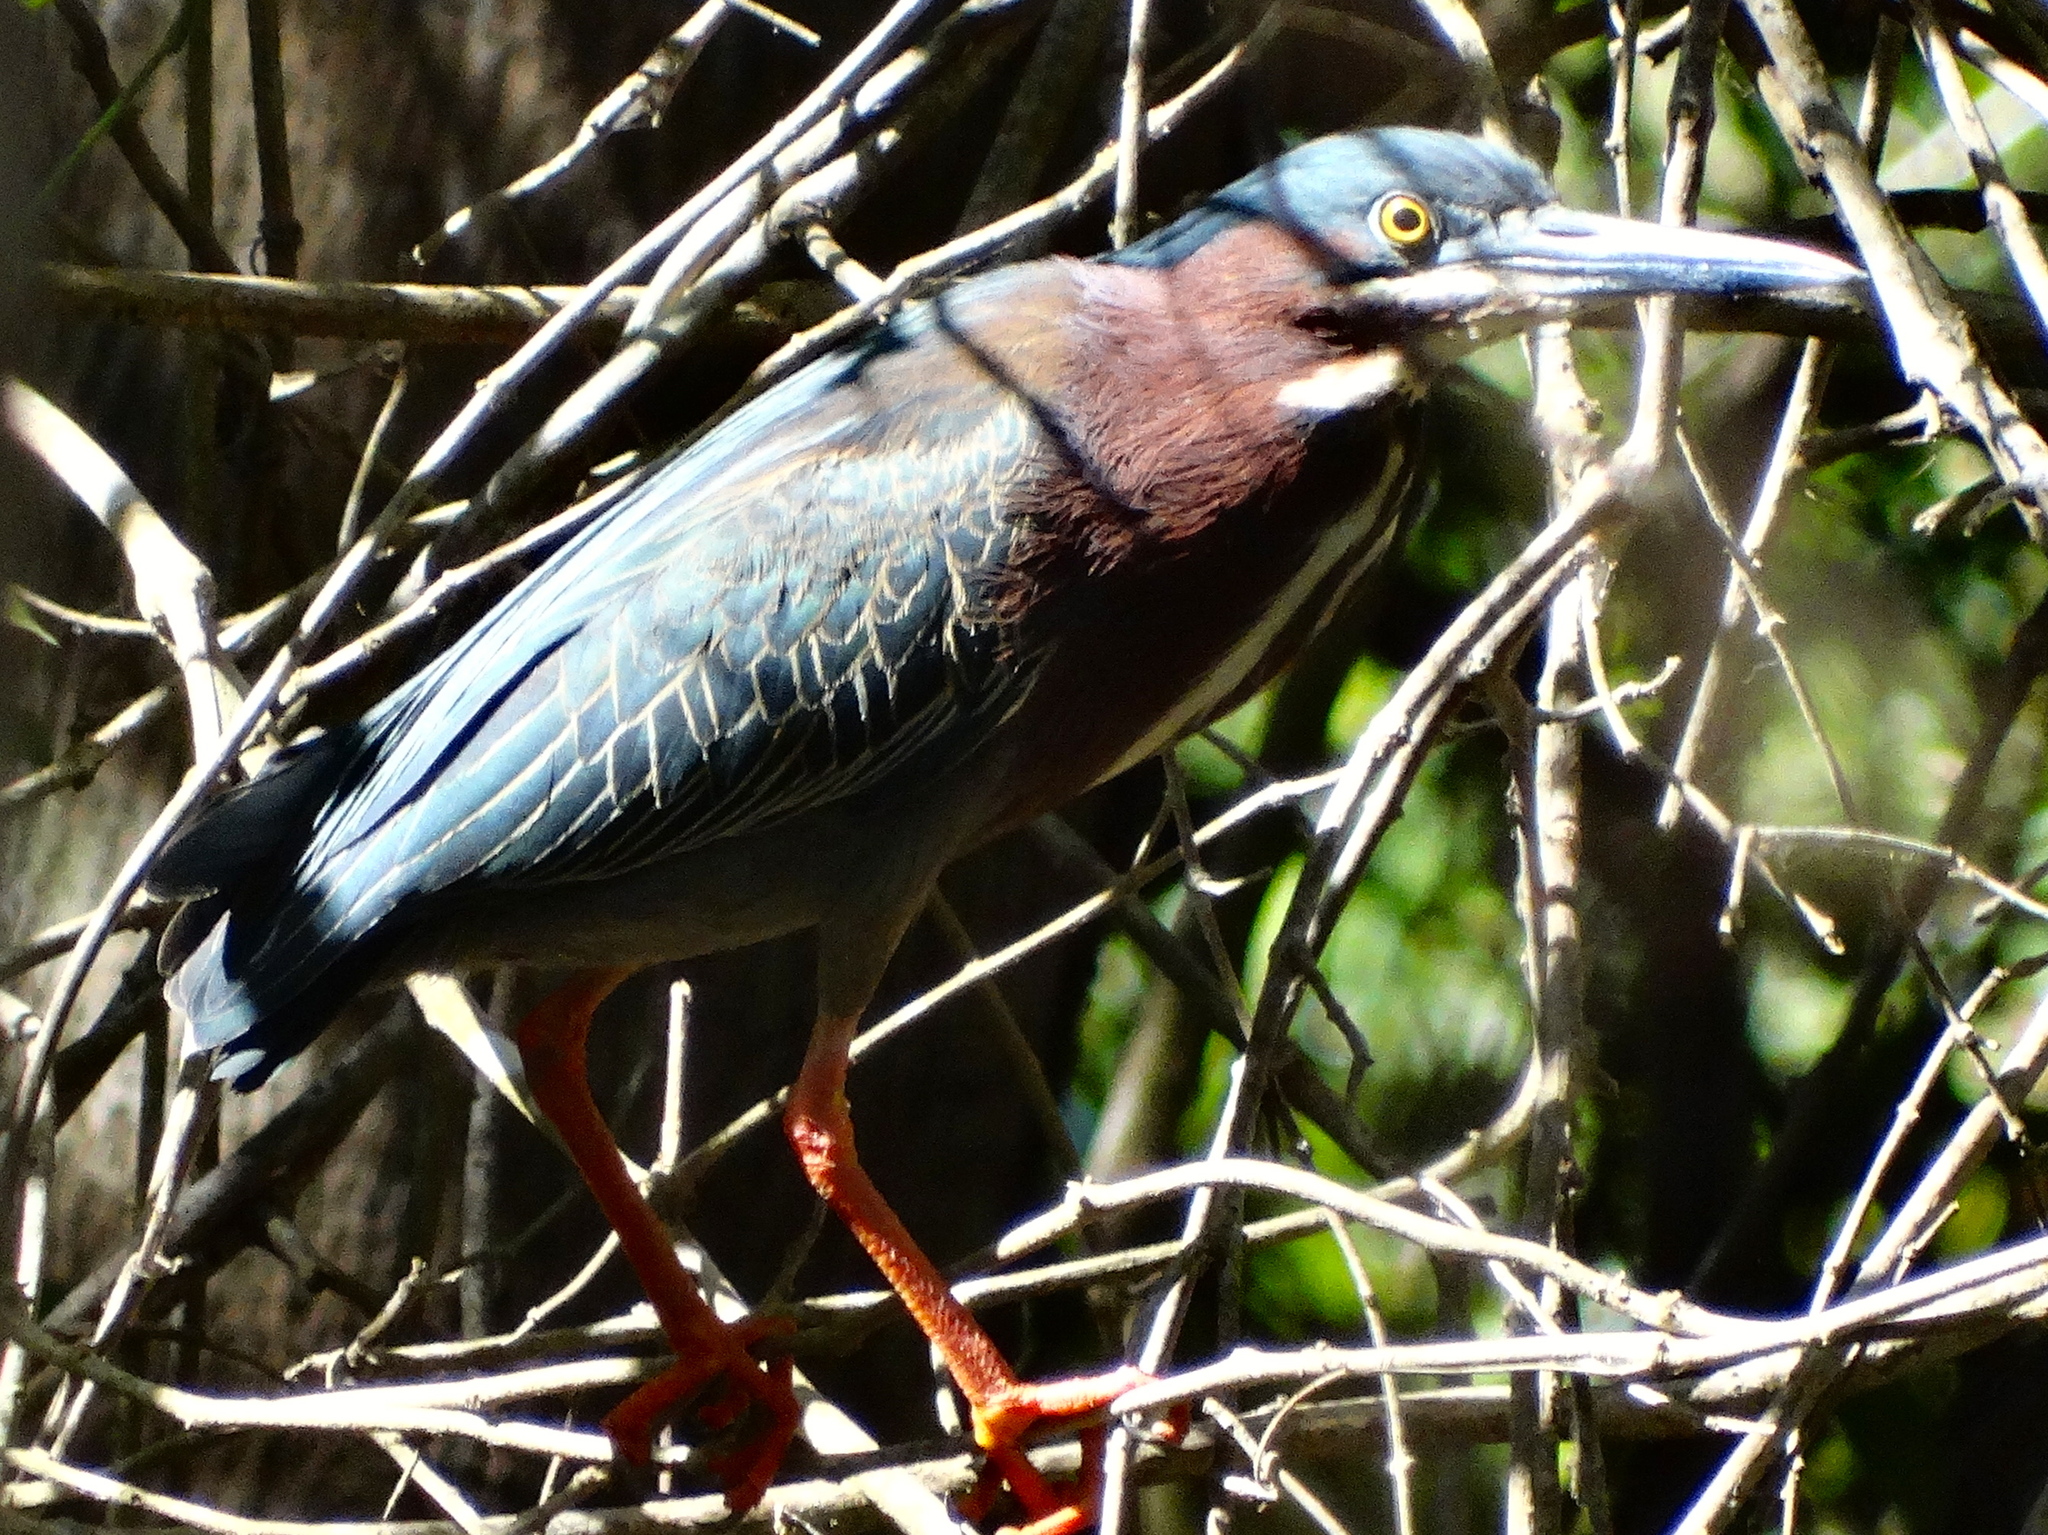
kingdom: Animalia
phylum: Chordata
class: Aves
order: Pelecaniformes
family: Ardeidae
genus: Butorides
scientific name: Butorides virescens
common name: Green heron
